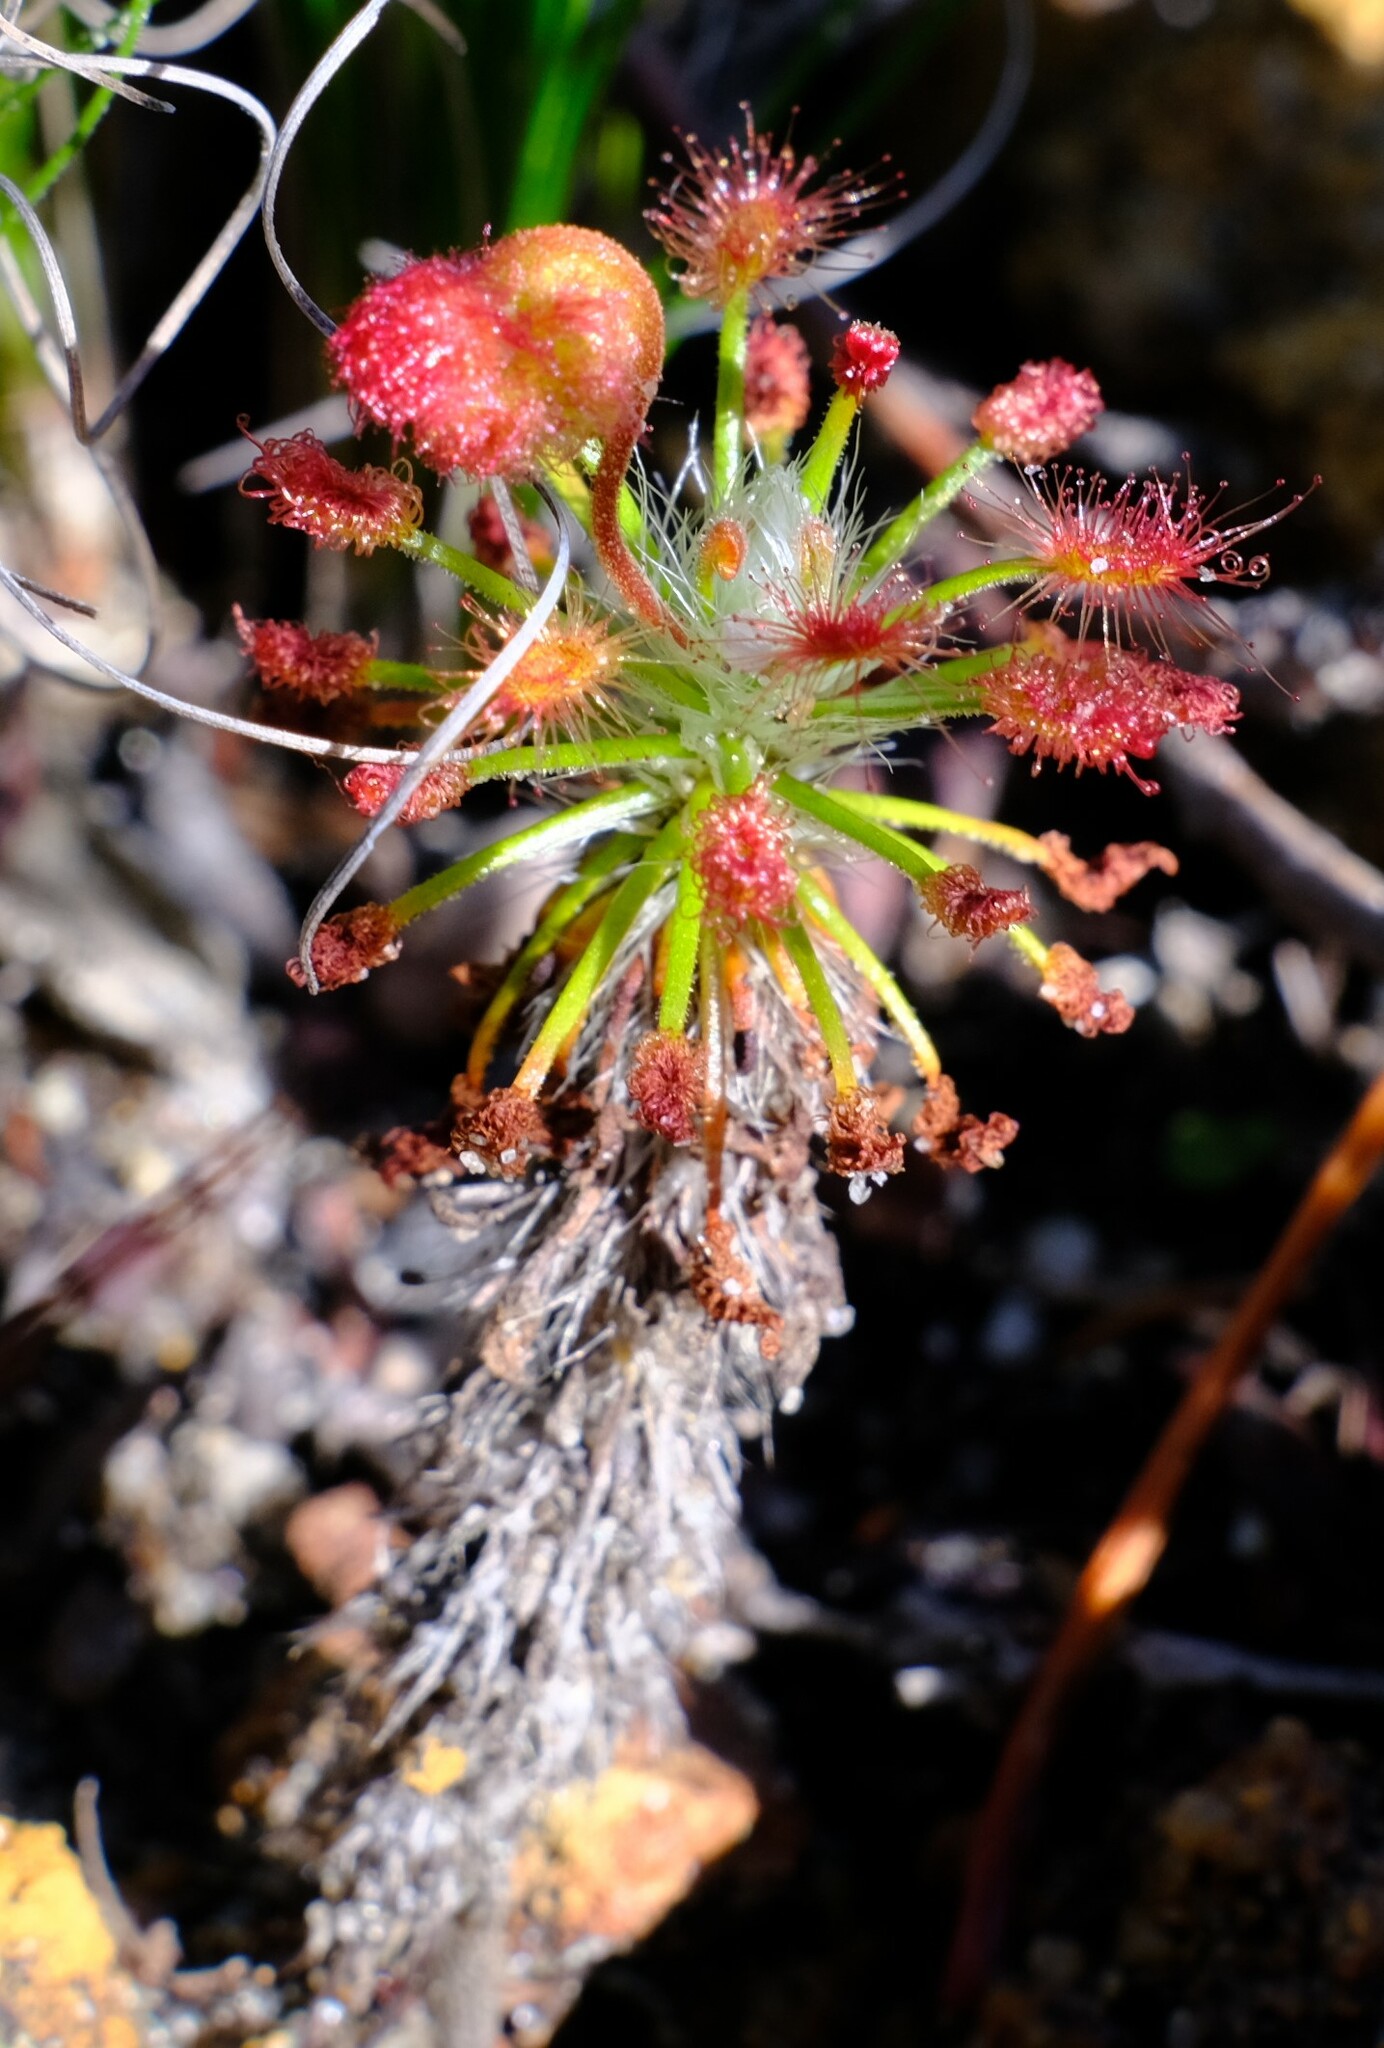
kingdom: Plantae
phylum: Tracheophyta
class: Magnoliopsida
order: Caryophyllales
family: Droseraceae
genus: Drosera
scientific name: Drosera barbigera
